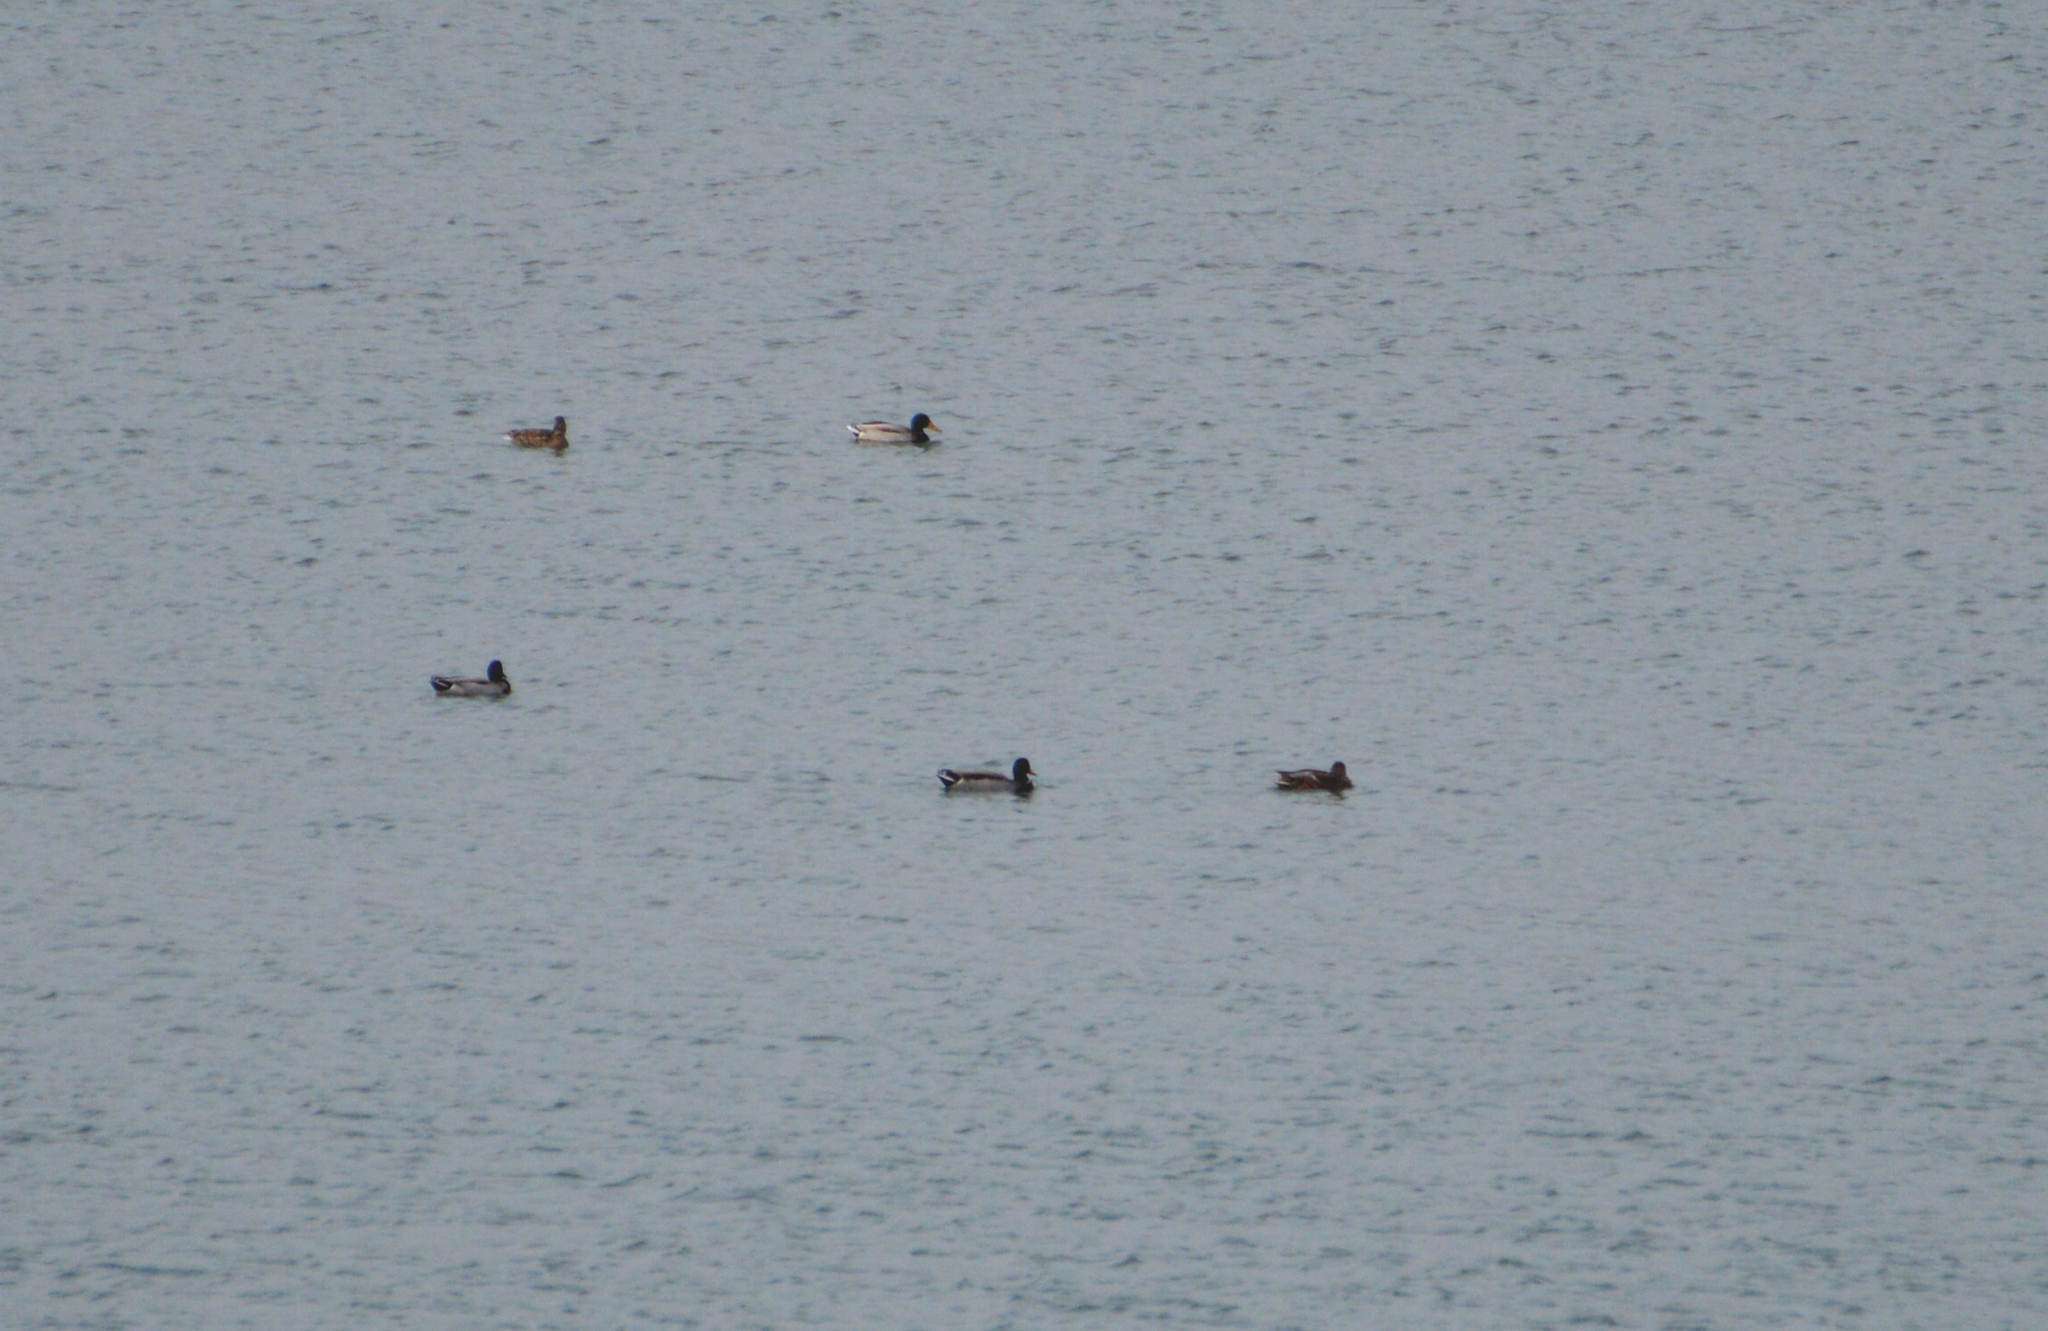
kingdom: Animalia
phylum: Chordata
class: Aves
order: Anseriformes
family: Anatidae
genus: Anas
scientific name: Anas platyrhynchos
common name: Mallard
